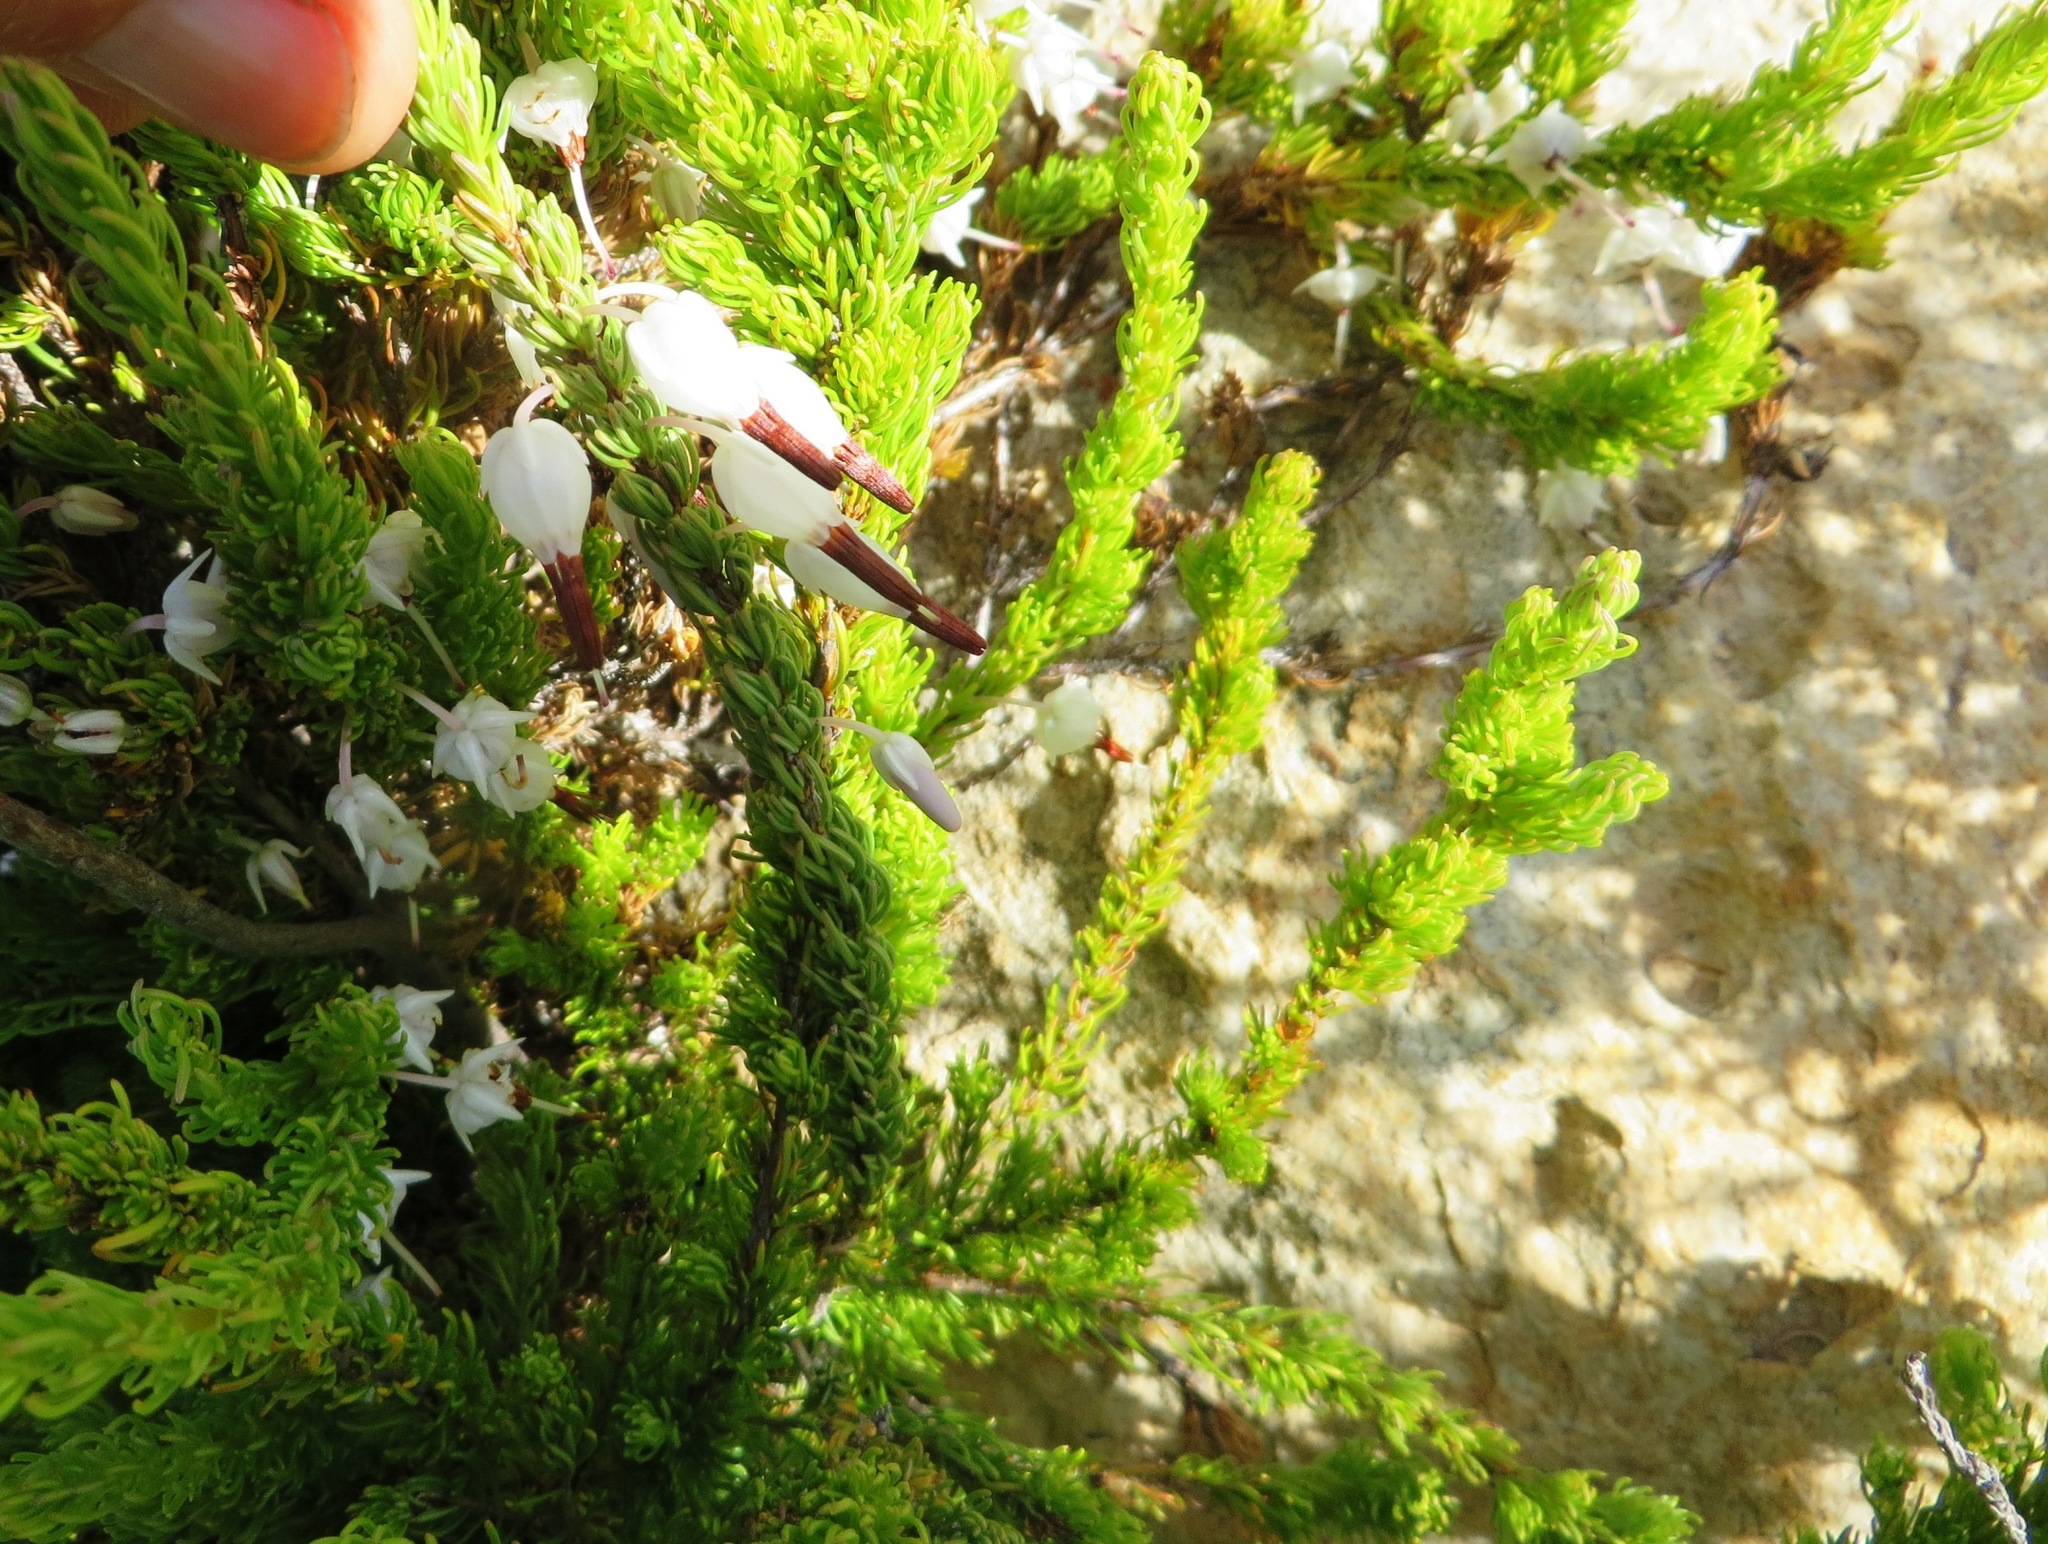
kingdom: Plantae
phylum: Tracheophyta
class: Magnoliopsida
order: Ericales
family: Ericaceae
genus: Erica
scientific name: Erica plukenetii
